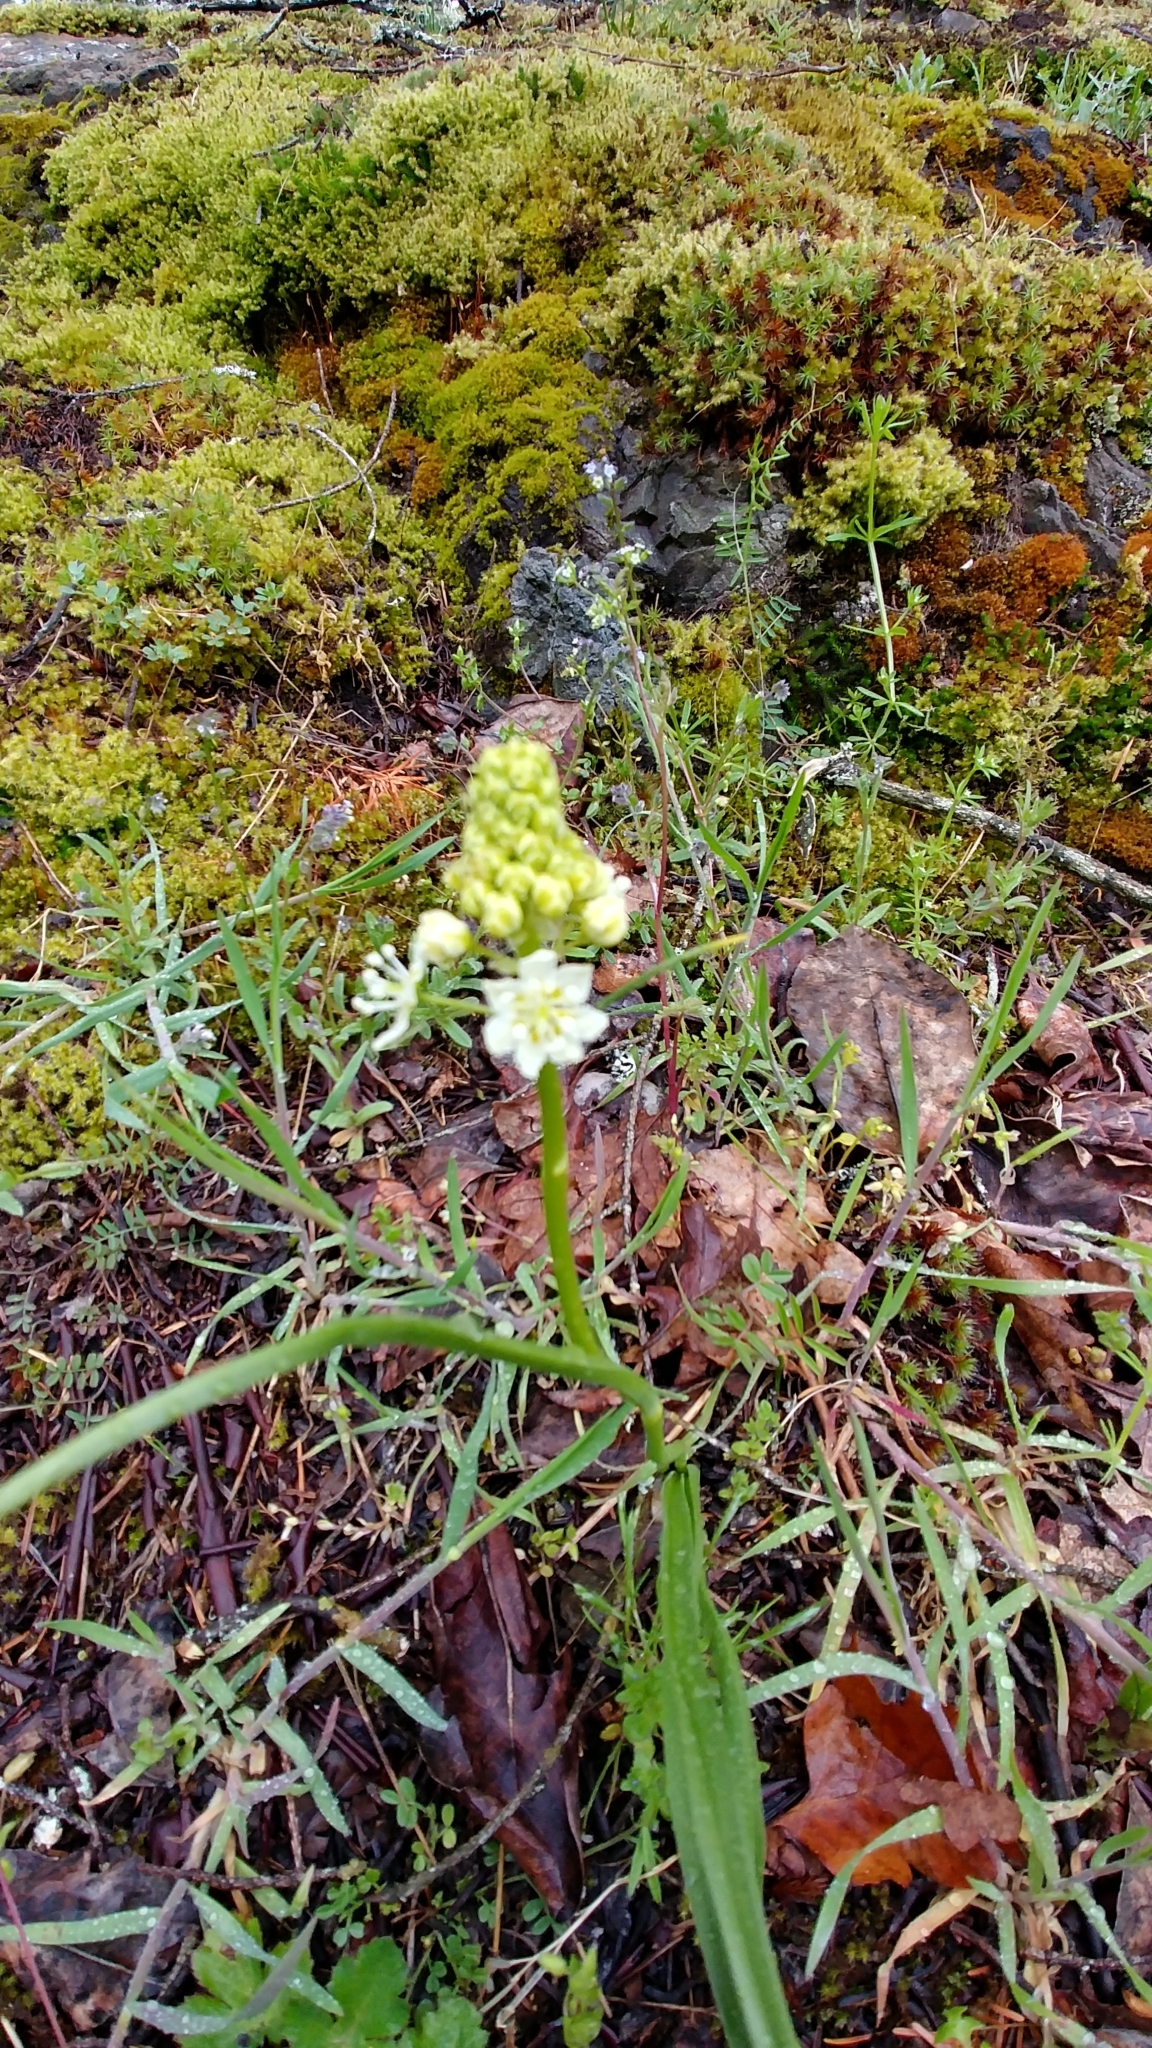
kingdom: Plantae
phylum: Tracheophyta
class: Liliopsida
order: Liliales
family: Melanthiaceae
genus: Toxicoscordion
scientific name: Toxicoscordion venenosum
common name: Meadow death camas
